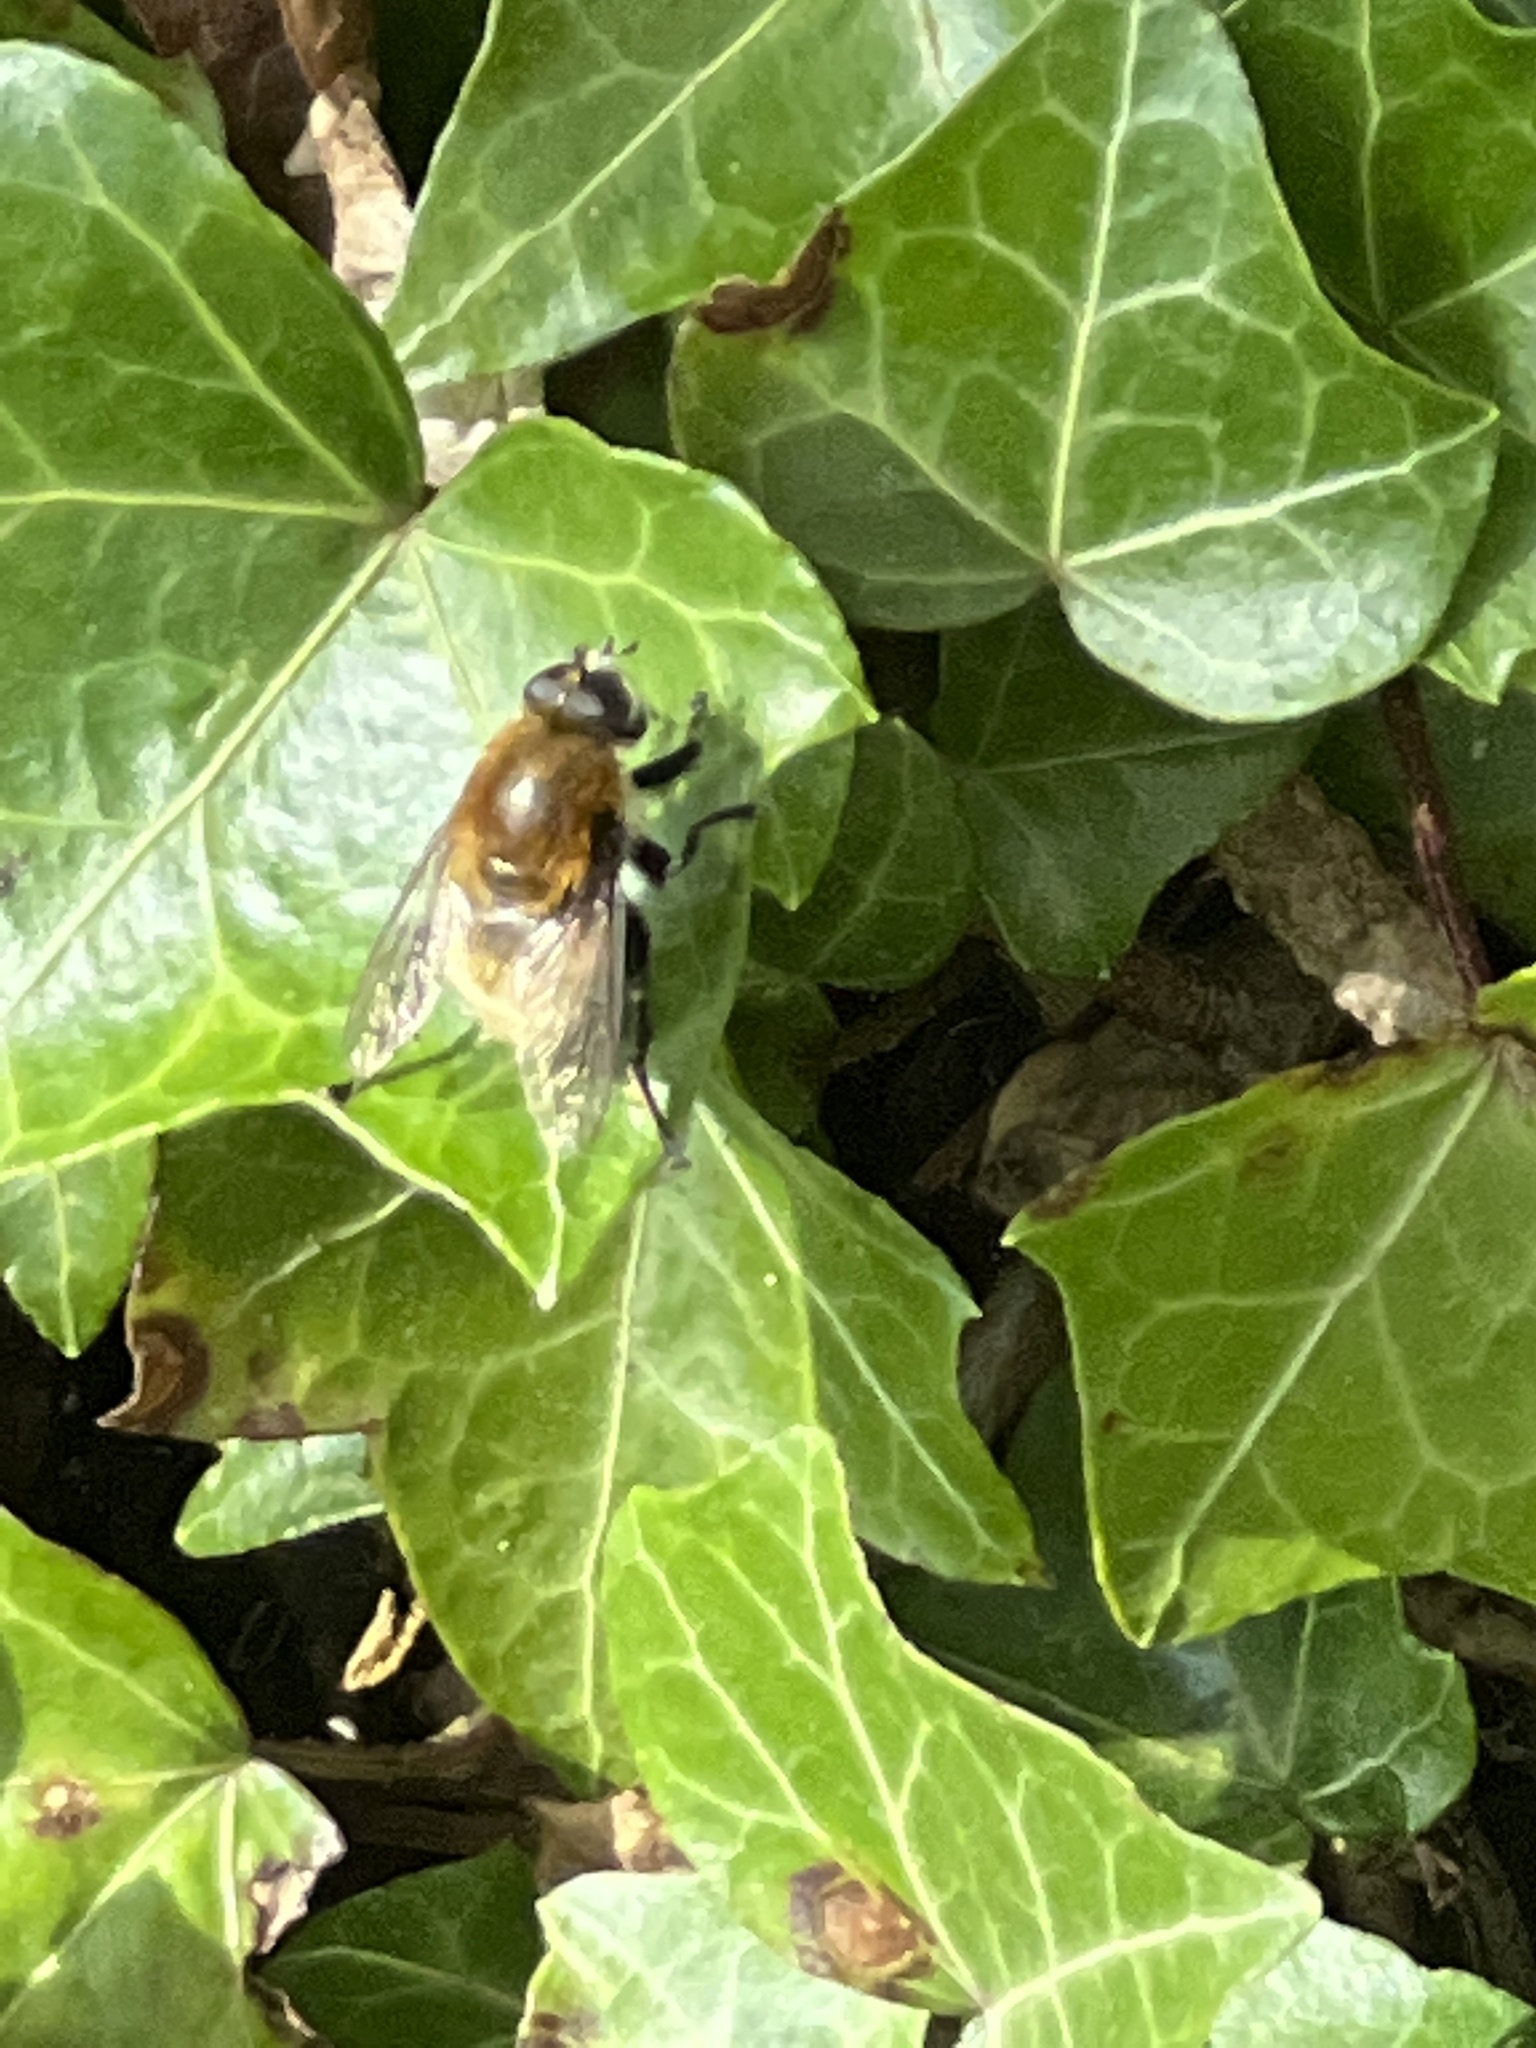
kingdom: Animalia
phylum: Arthropoda
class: Insecta
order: Diptera
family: Syrphidae
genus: Merodon
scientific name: Merodon equestris
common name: Greater bulb-fly
